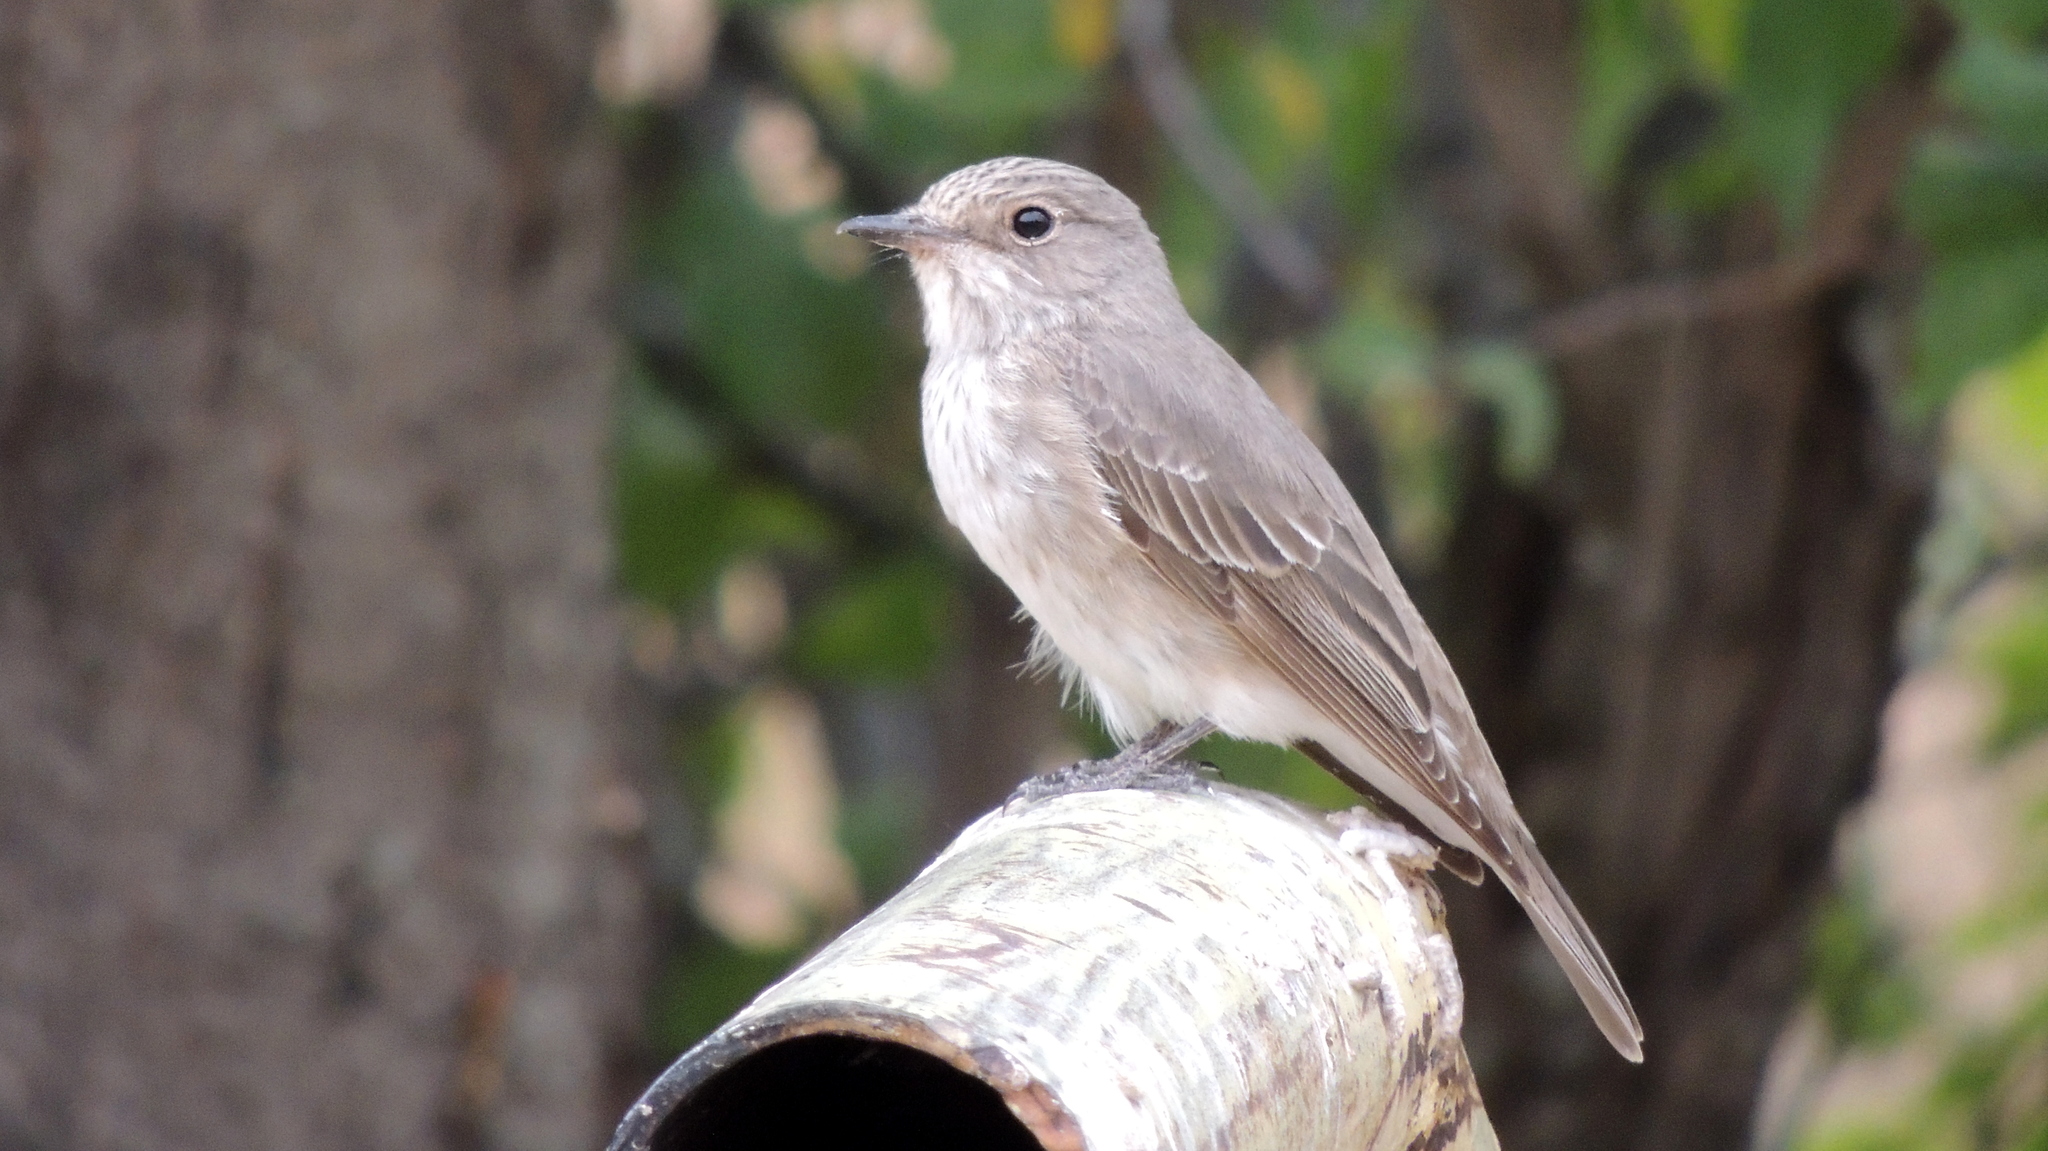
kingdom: Animalia
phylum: Chordata
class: Aves
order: Passeriformes
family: Muscicapidae
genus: Muscicapa
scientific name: Muscicapa striata
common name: Spotted flycatcher
